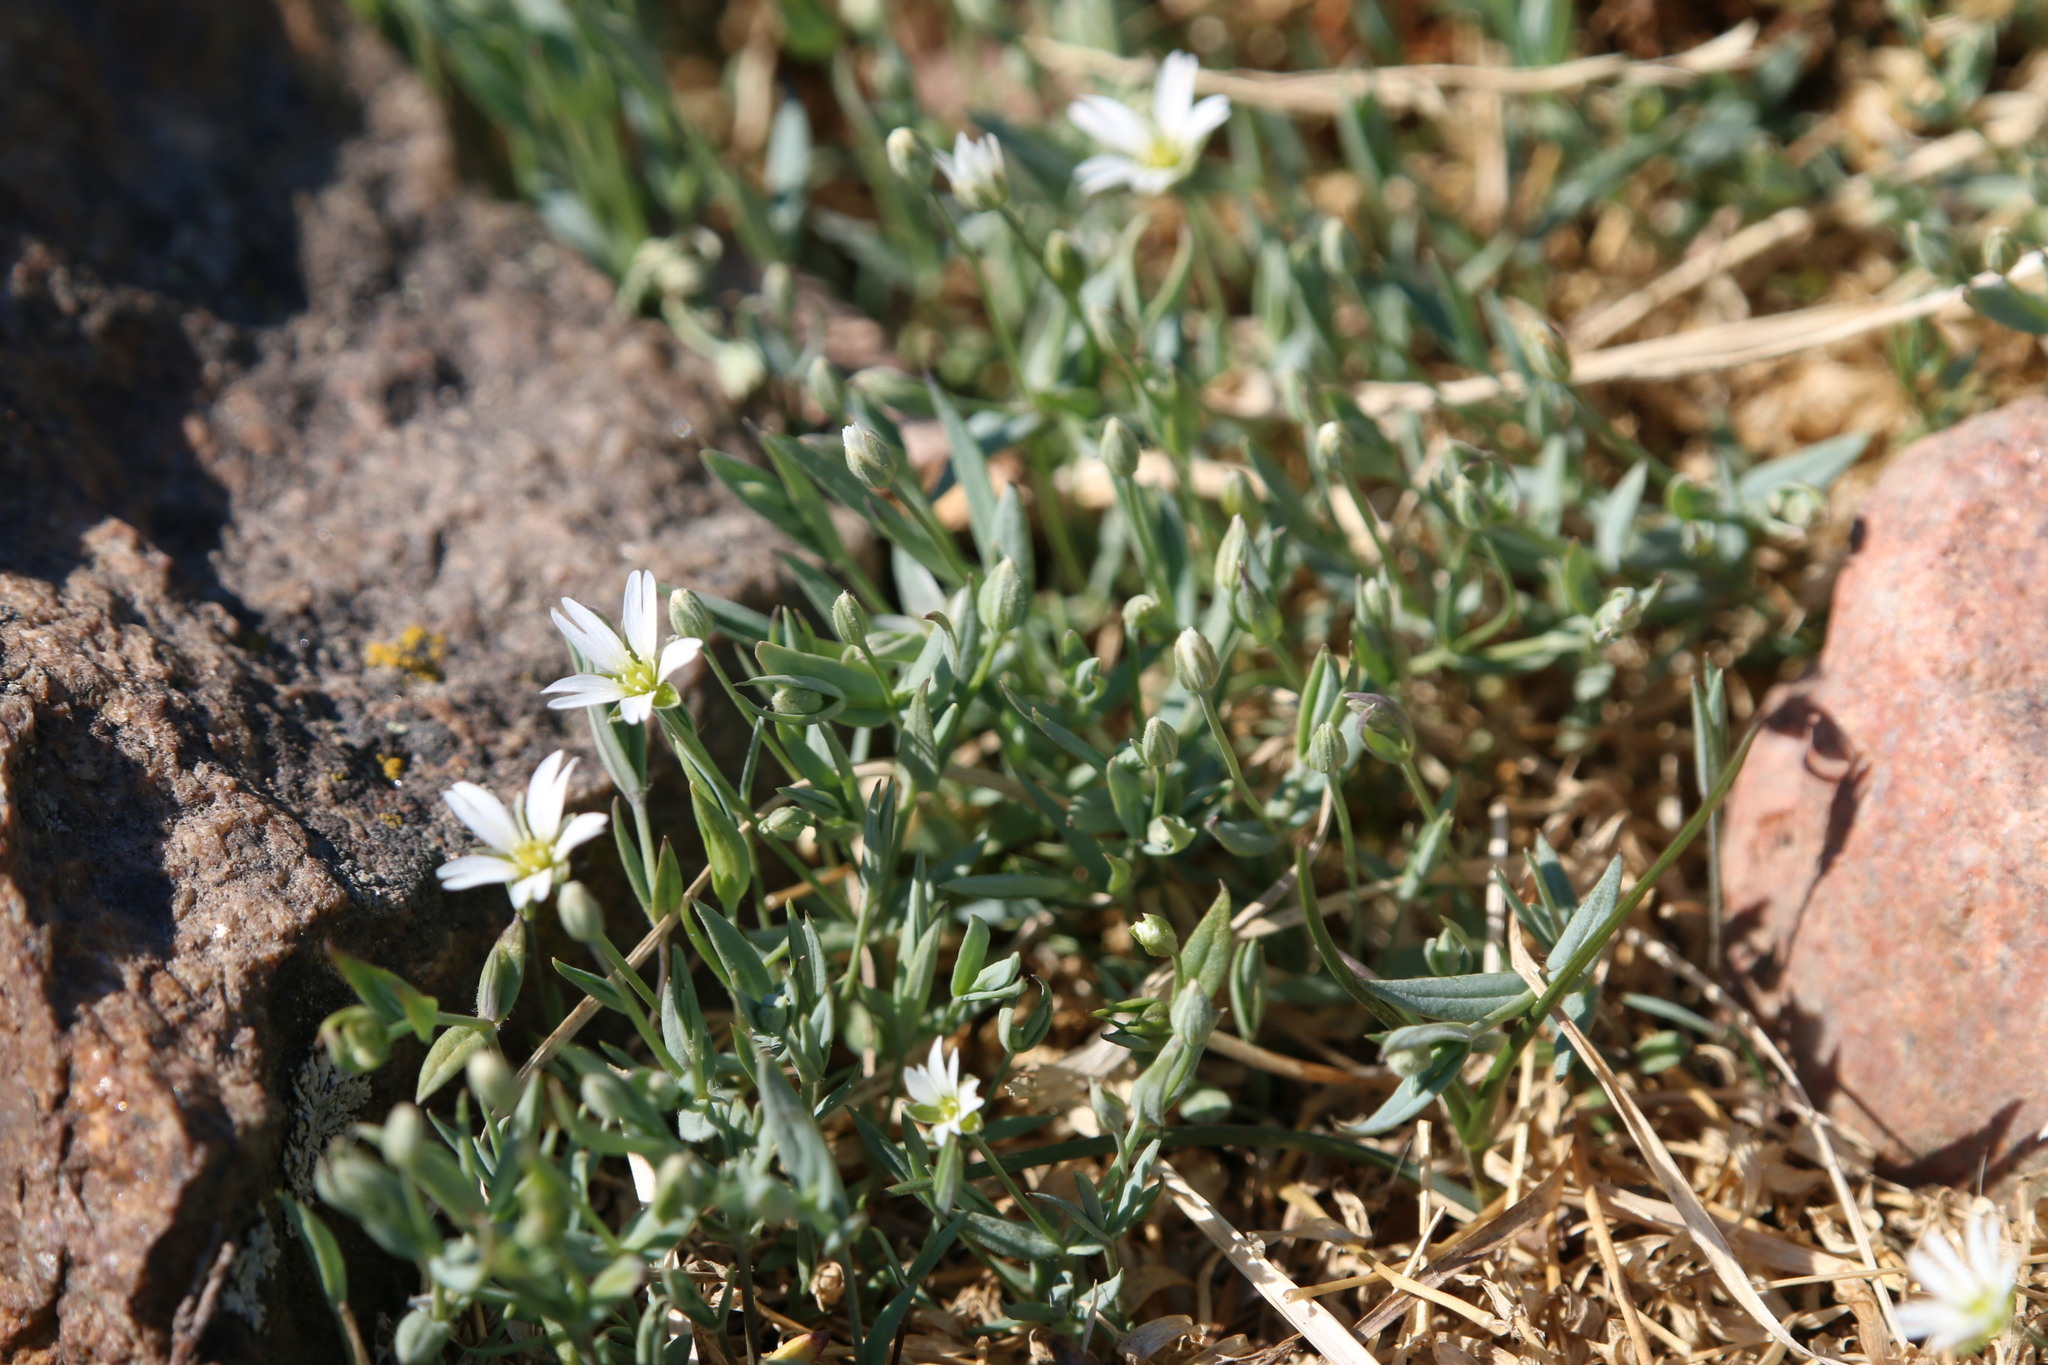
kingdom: Plantae
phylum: Tracheophyta
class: Magnoliopsida
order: Caryophyllales
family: Caryophyllaceae
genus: Stellaria
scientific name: Stellaria longipes
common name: Goldie's starwort
